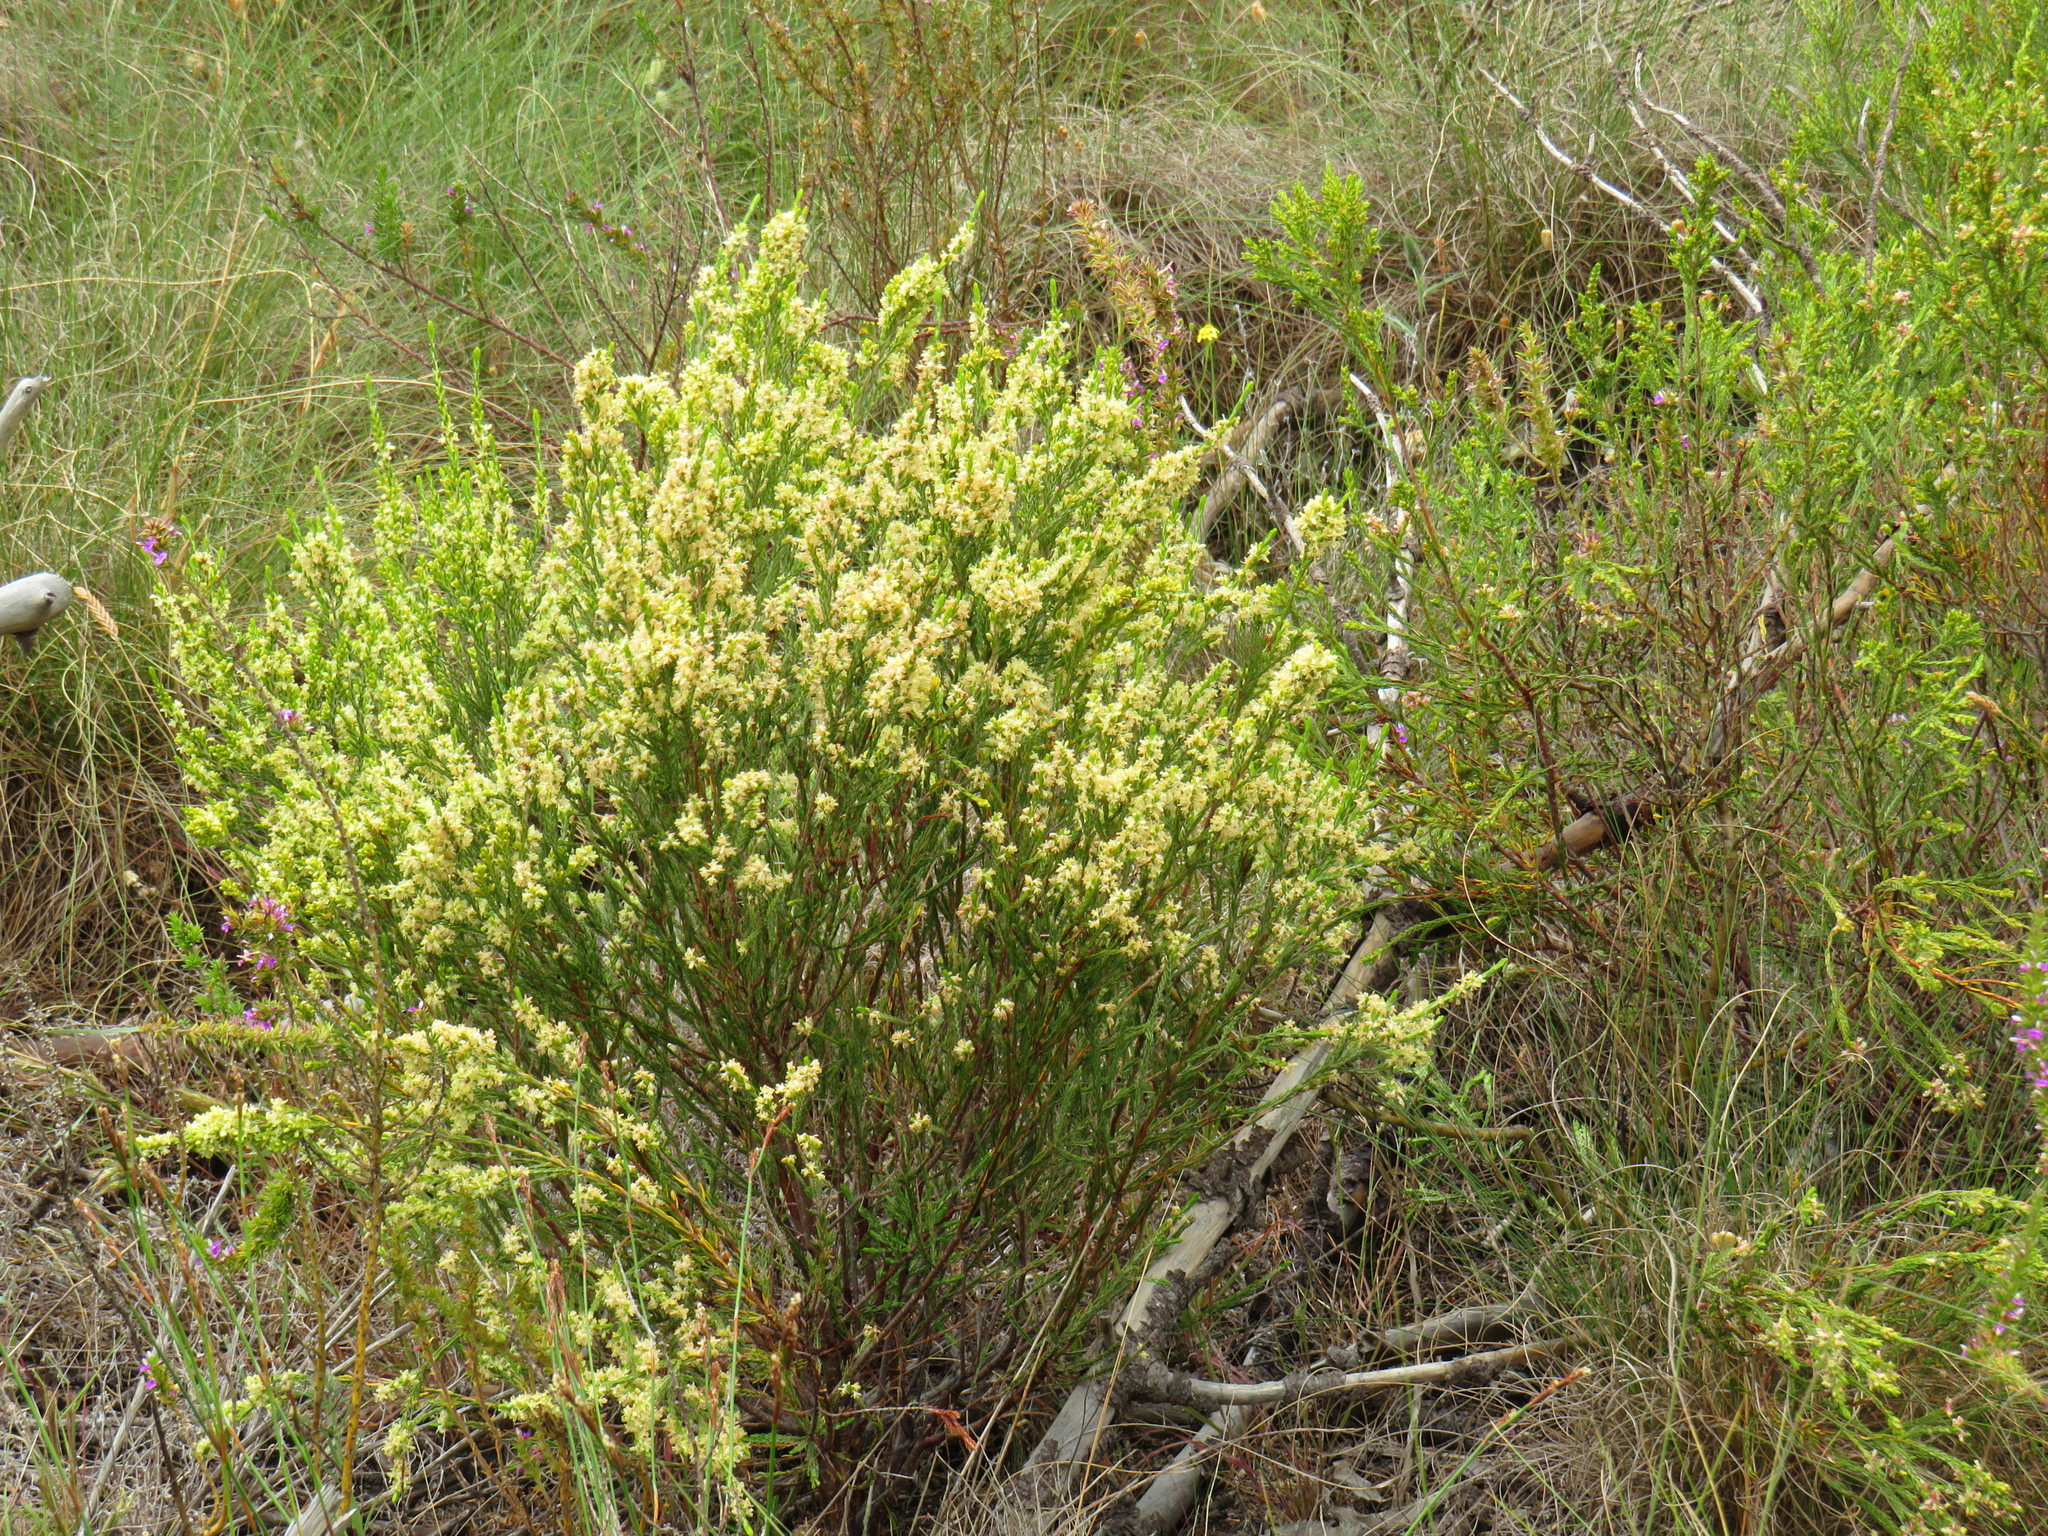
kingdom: Plantae
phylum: Tracheophyta
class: Magnoliopsida
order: Malvales
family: Thymelaeaceae
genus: Passerina
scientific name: Passerina corymbosa
